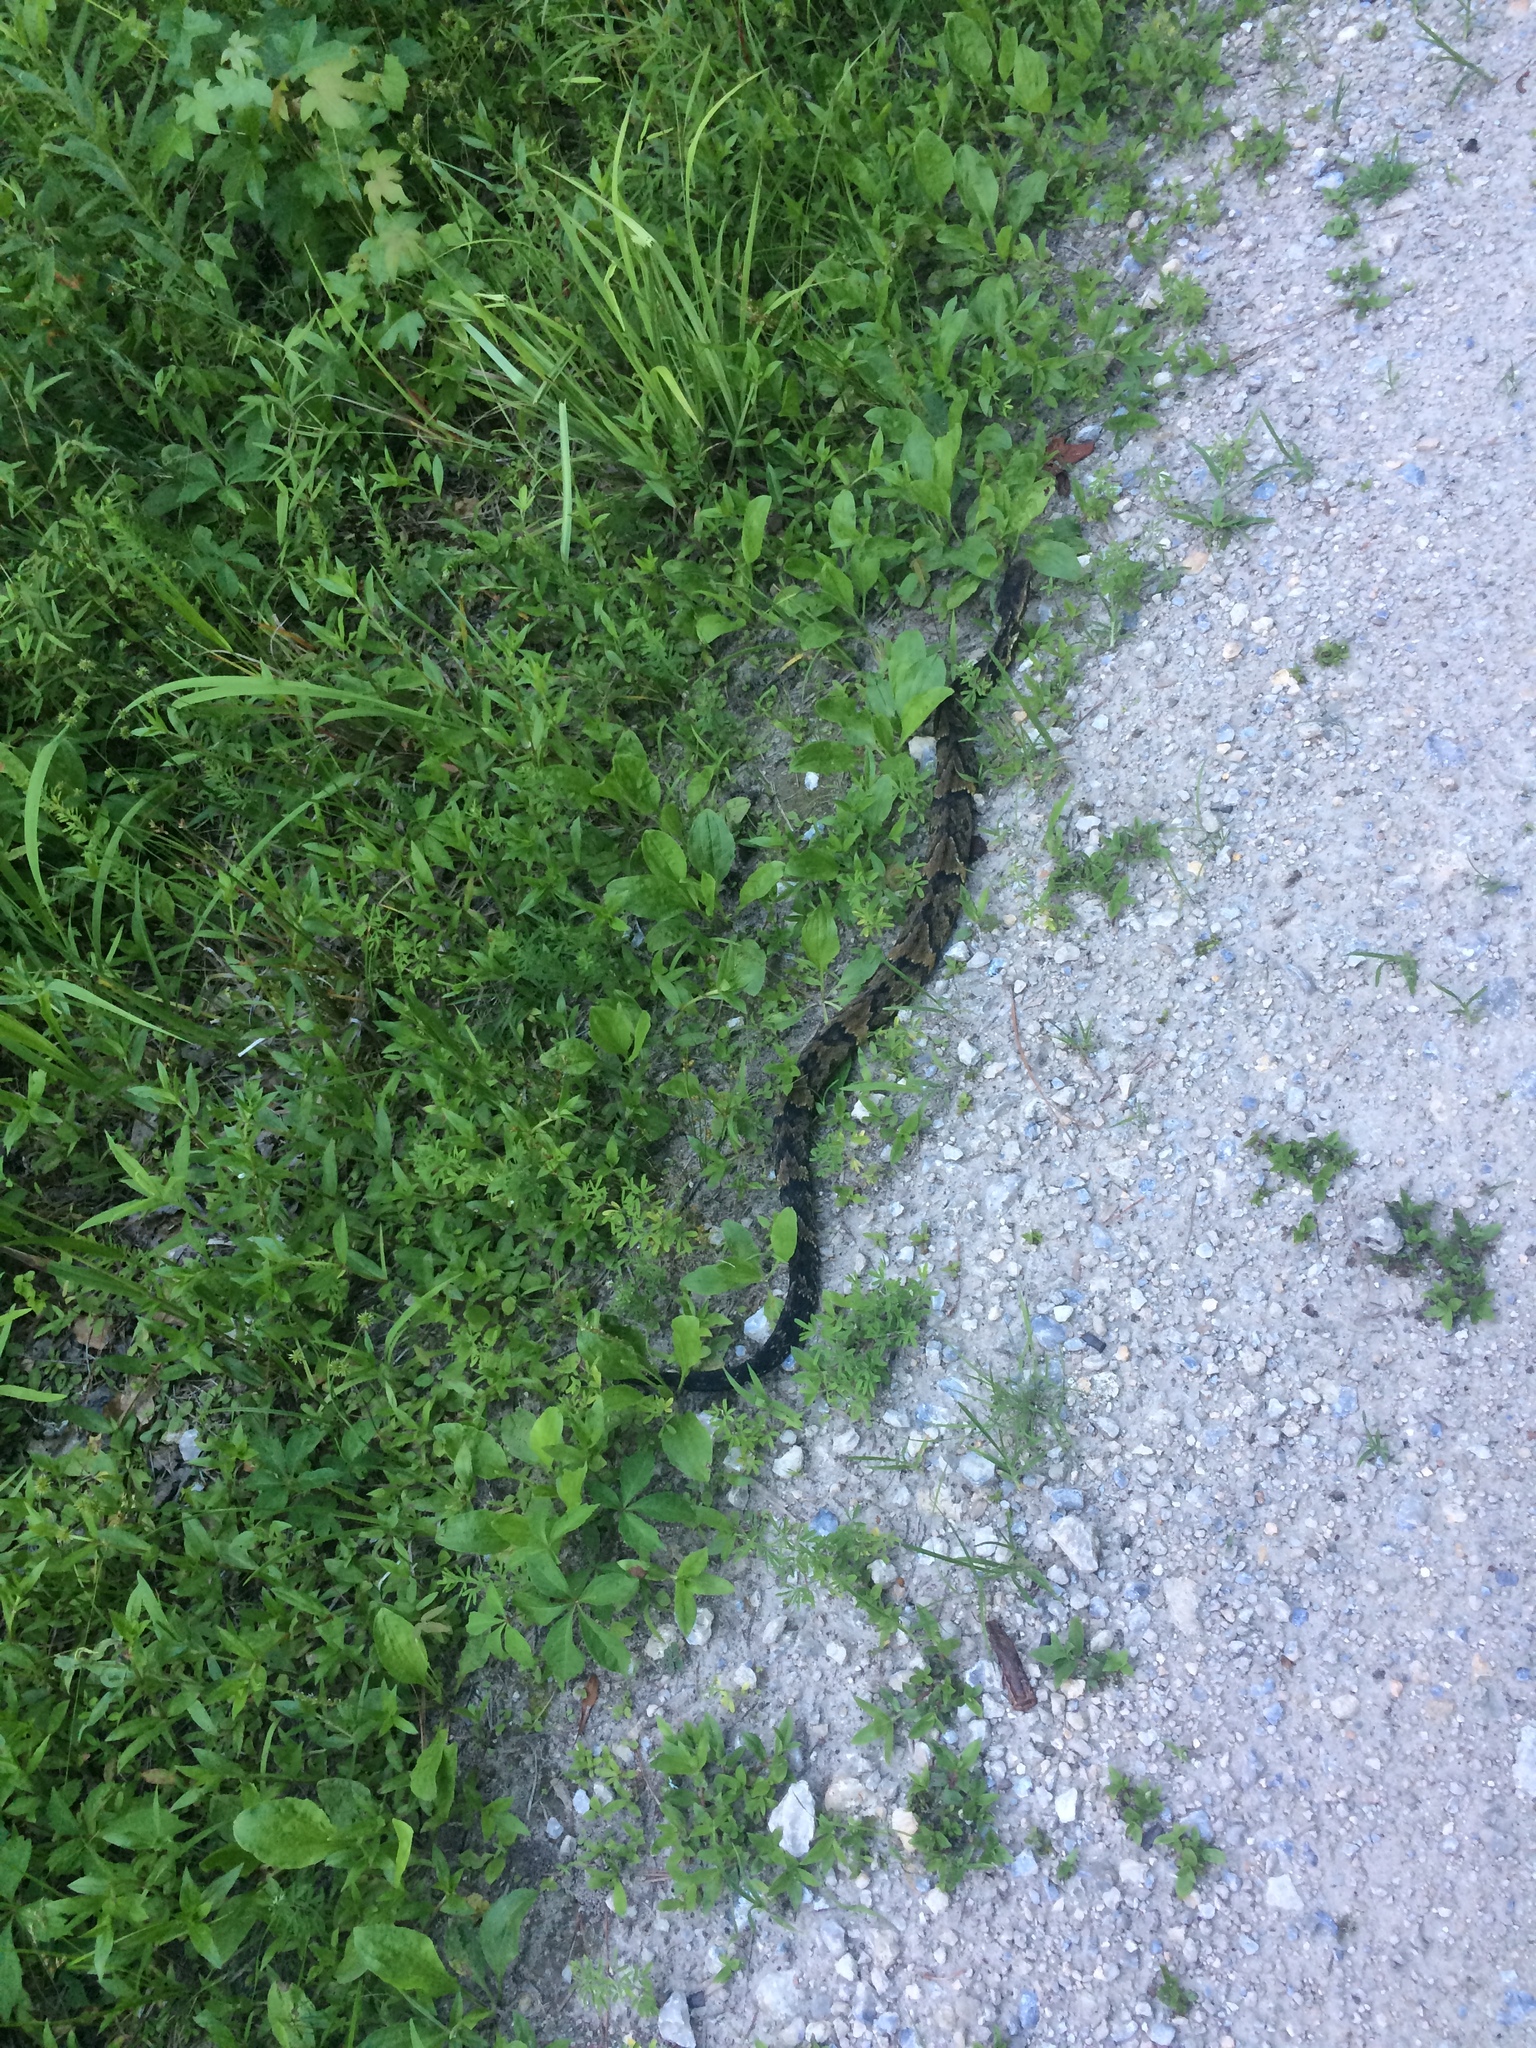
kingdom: Animalia
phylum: Chordata
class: Squamata
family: Viperidae
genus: Agkistrodon
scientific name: Agkistrodon piscivorus
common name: Cottonmouth
